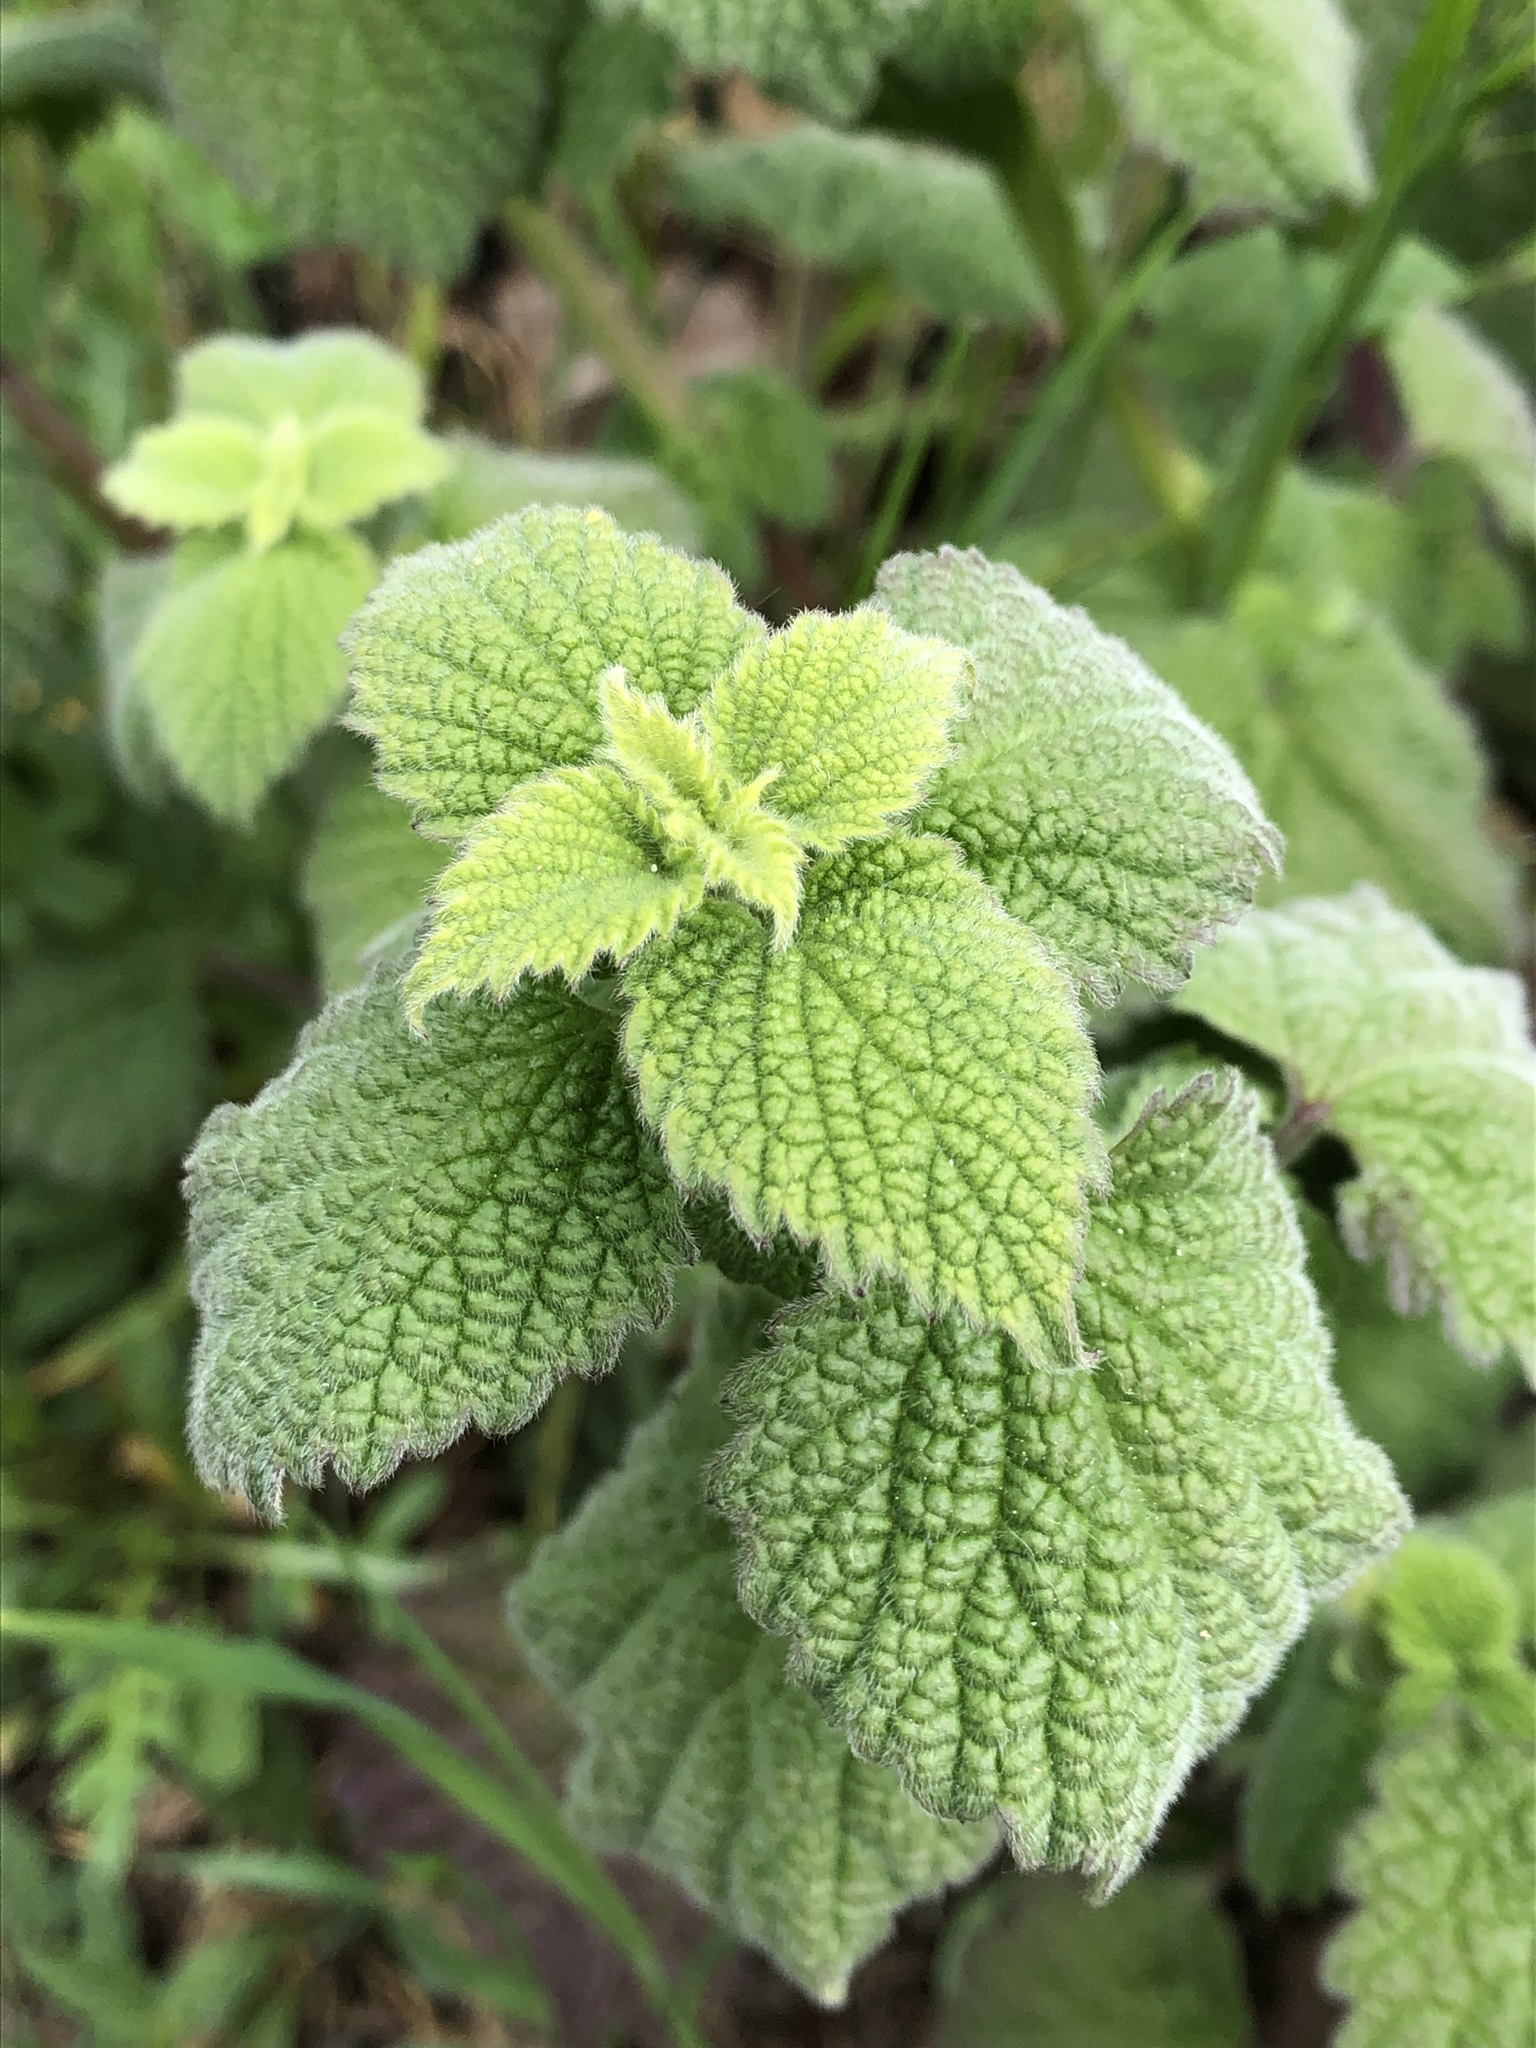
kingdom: Plantae
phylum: Tracheophyta
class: Magnoliopsida
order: Lamiales
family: Lamiaceae
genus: Ballota
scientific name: Ballota nigra
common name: Black horehound
